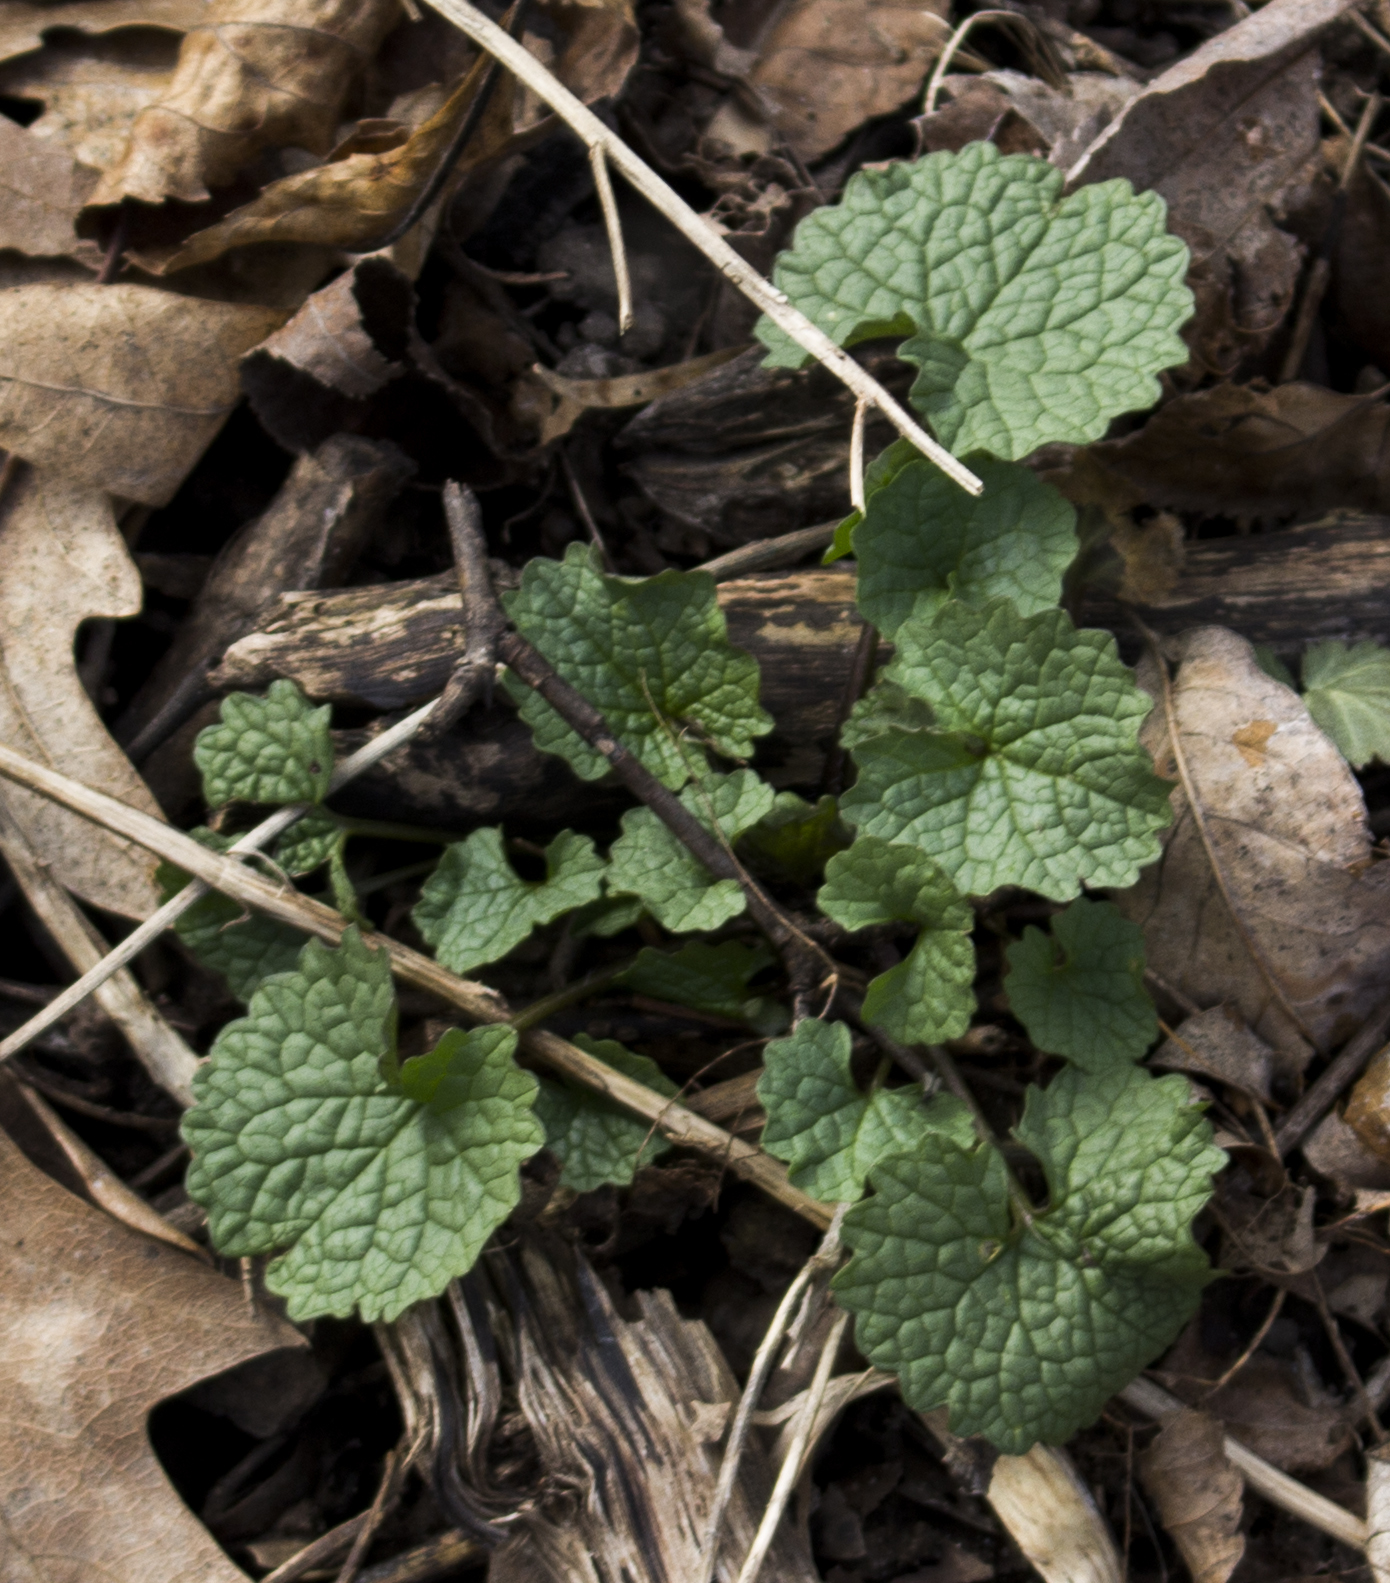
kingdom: Plantae
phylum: Tracheophyta
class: Magnoliopsida
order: Brassicales
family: Brassicaceae
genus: Alliaria
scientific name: Alliaria petiolata
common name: Garlic mustard
